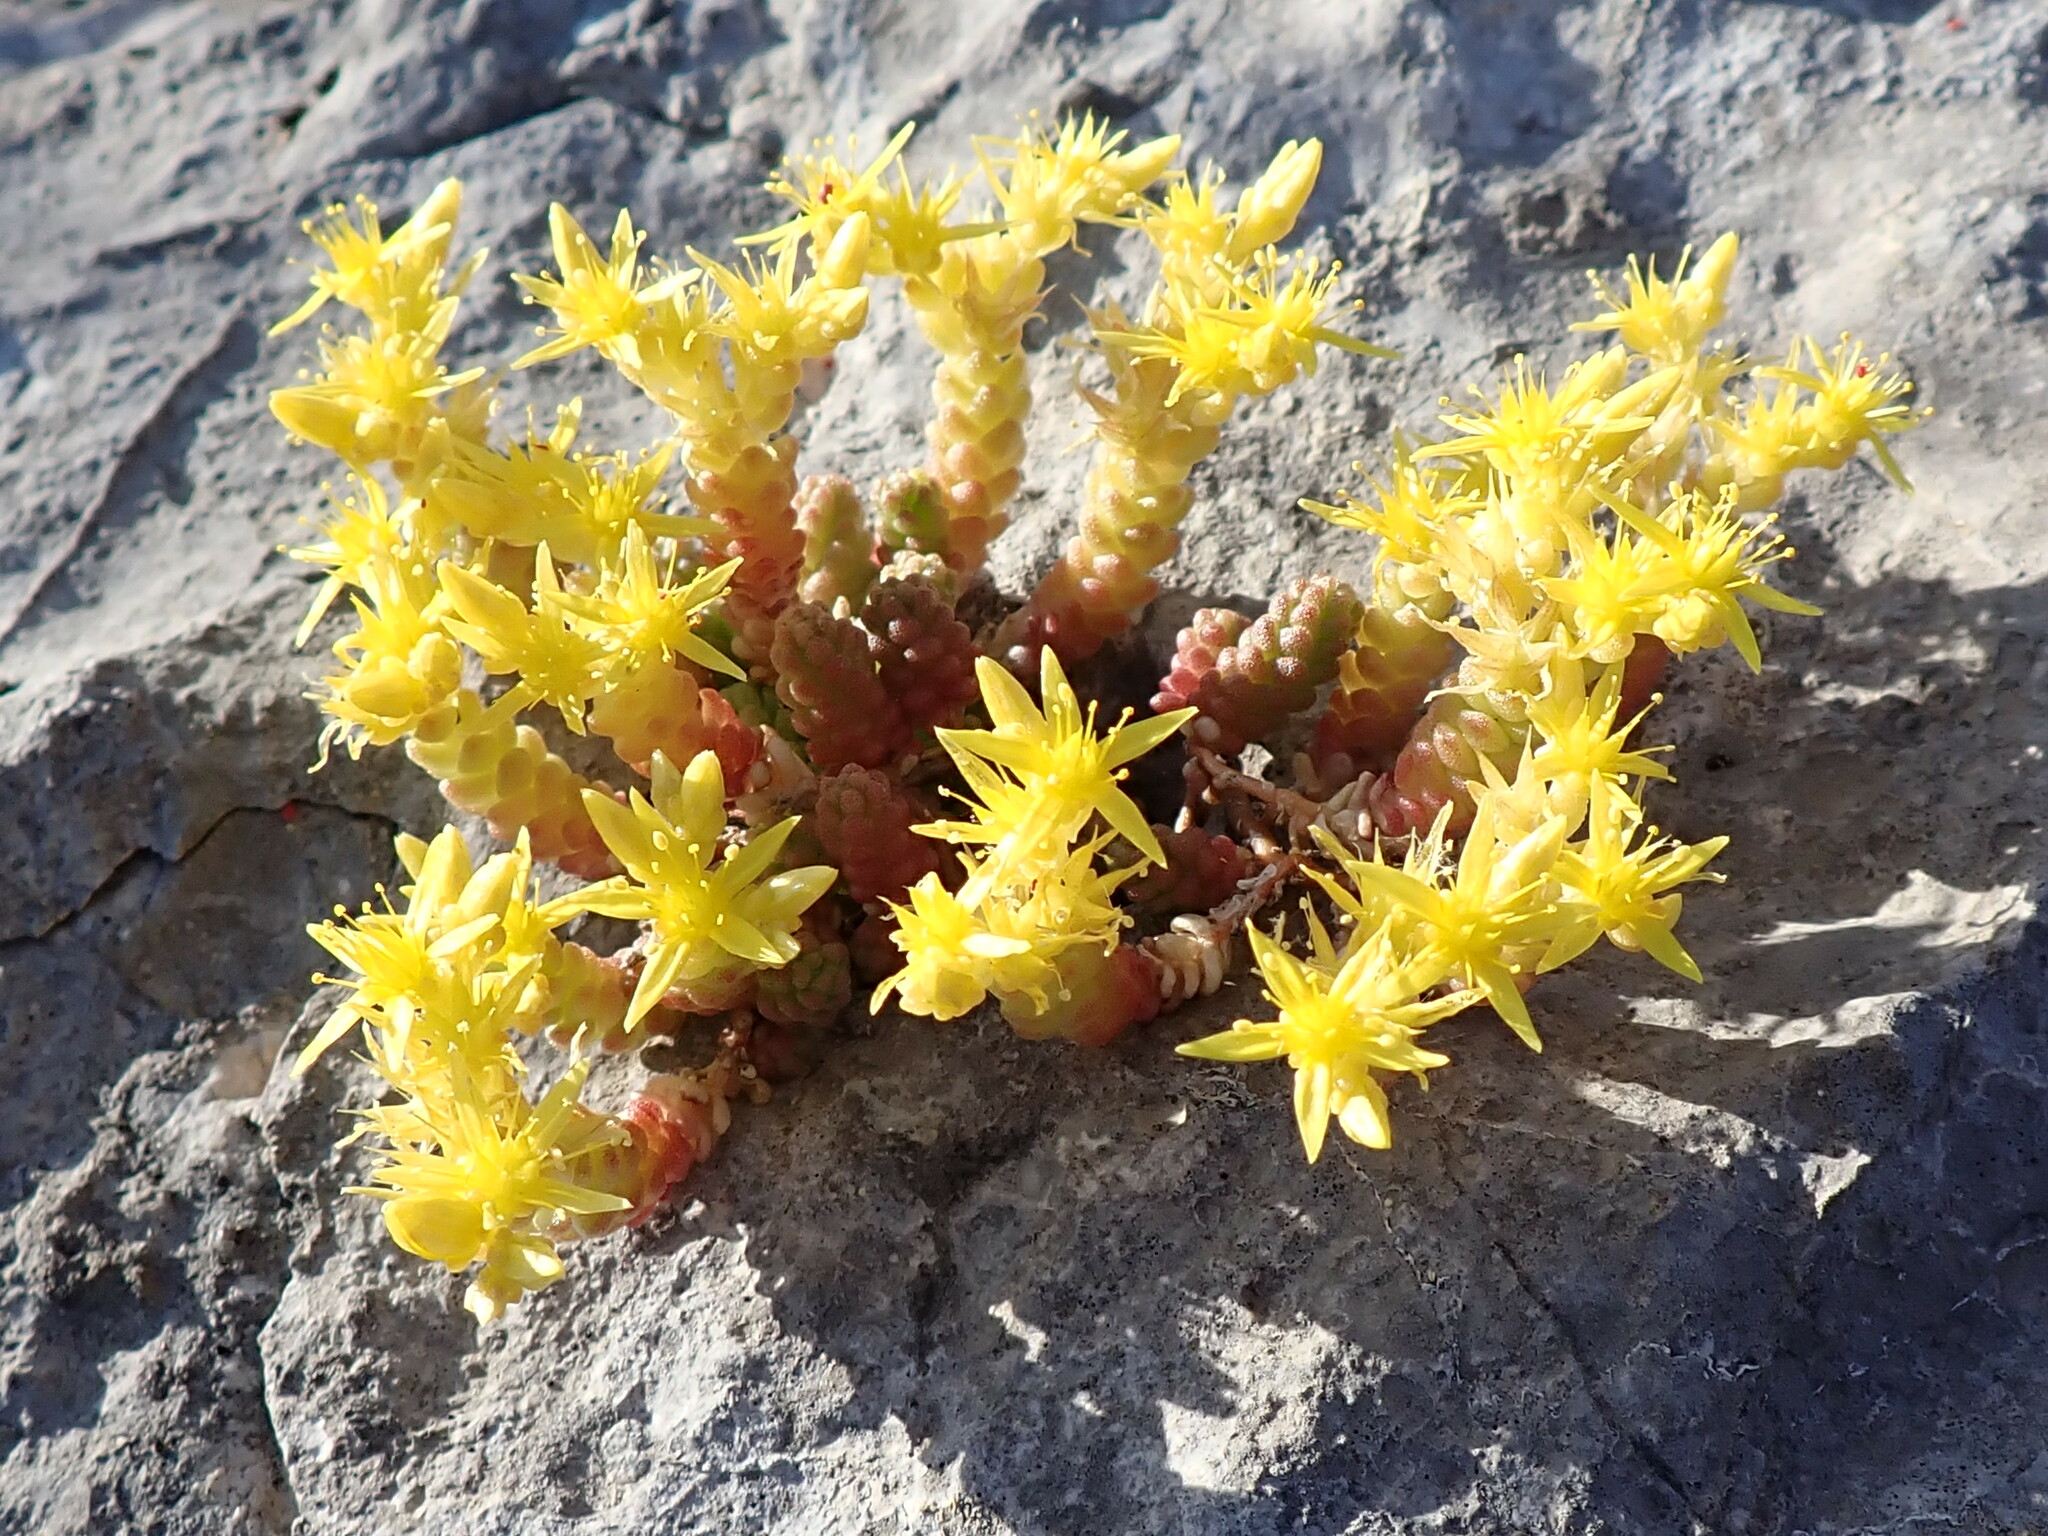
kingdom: Plantae
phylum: Tracheophyta
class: Magnoliopsida
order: Saxifragales
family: Crassulaceae
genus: Sedum
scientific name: Sedum acre
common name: Biting stonecrop
